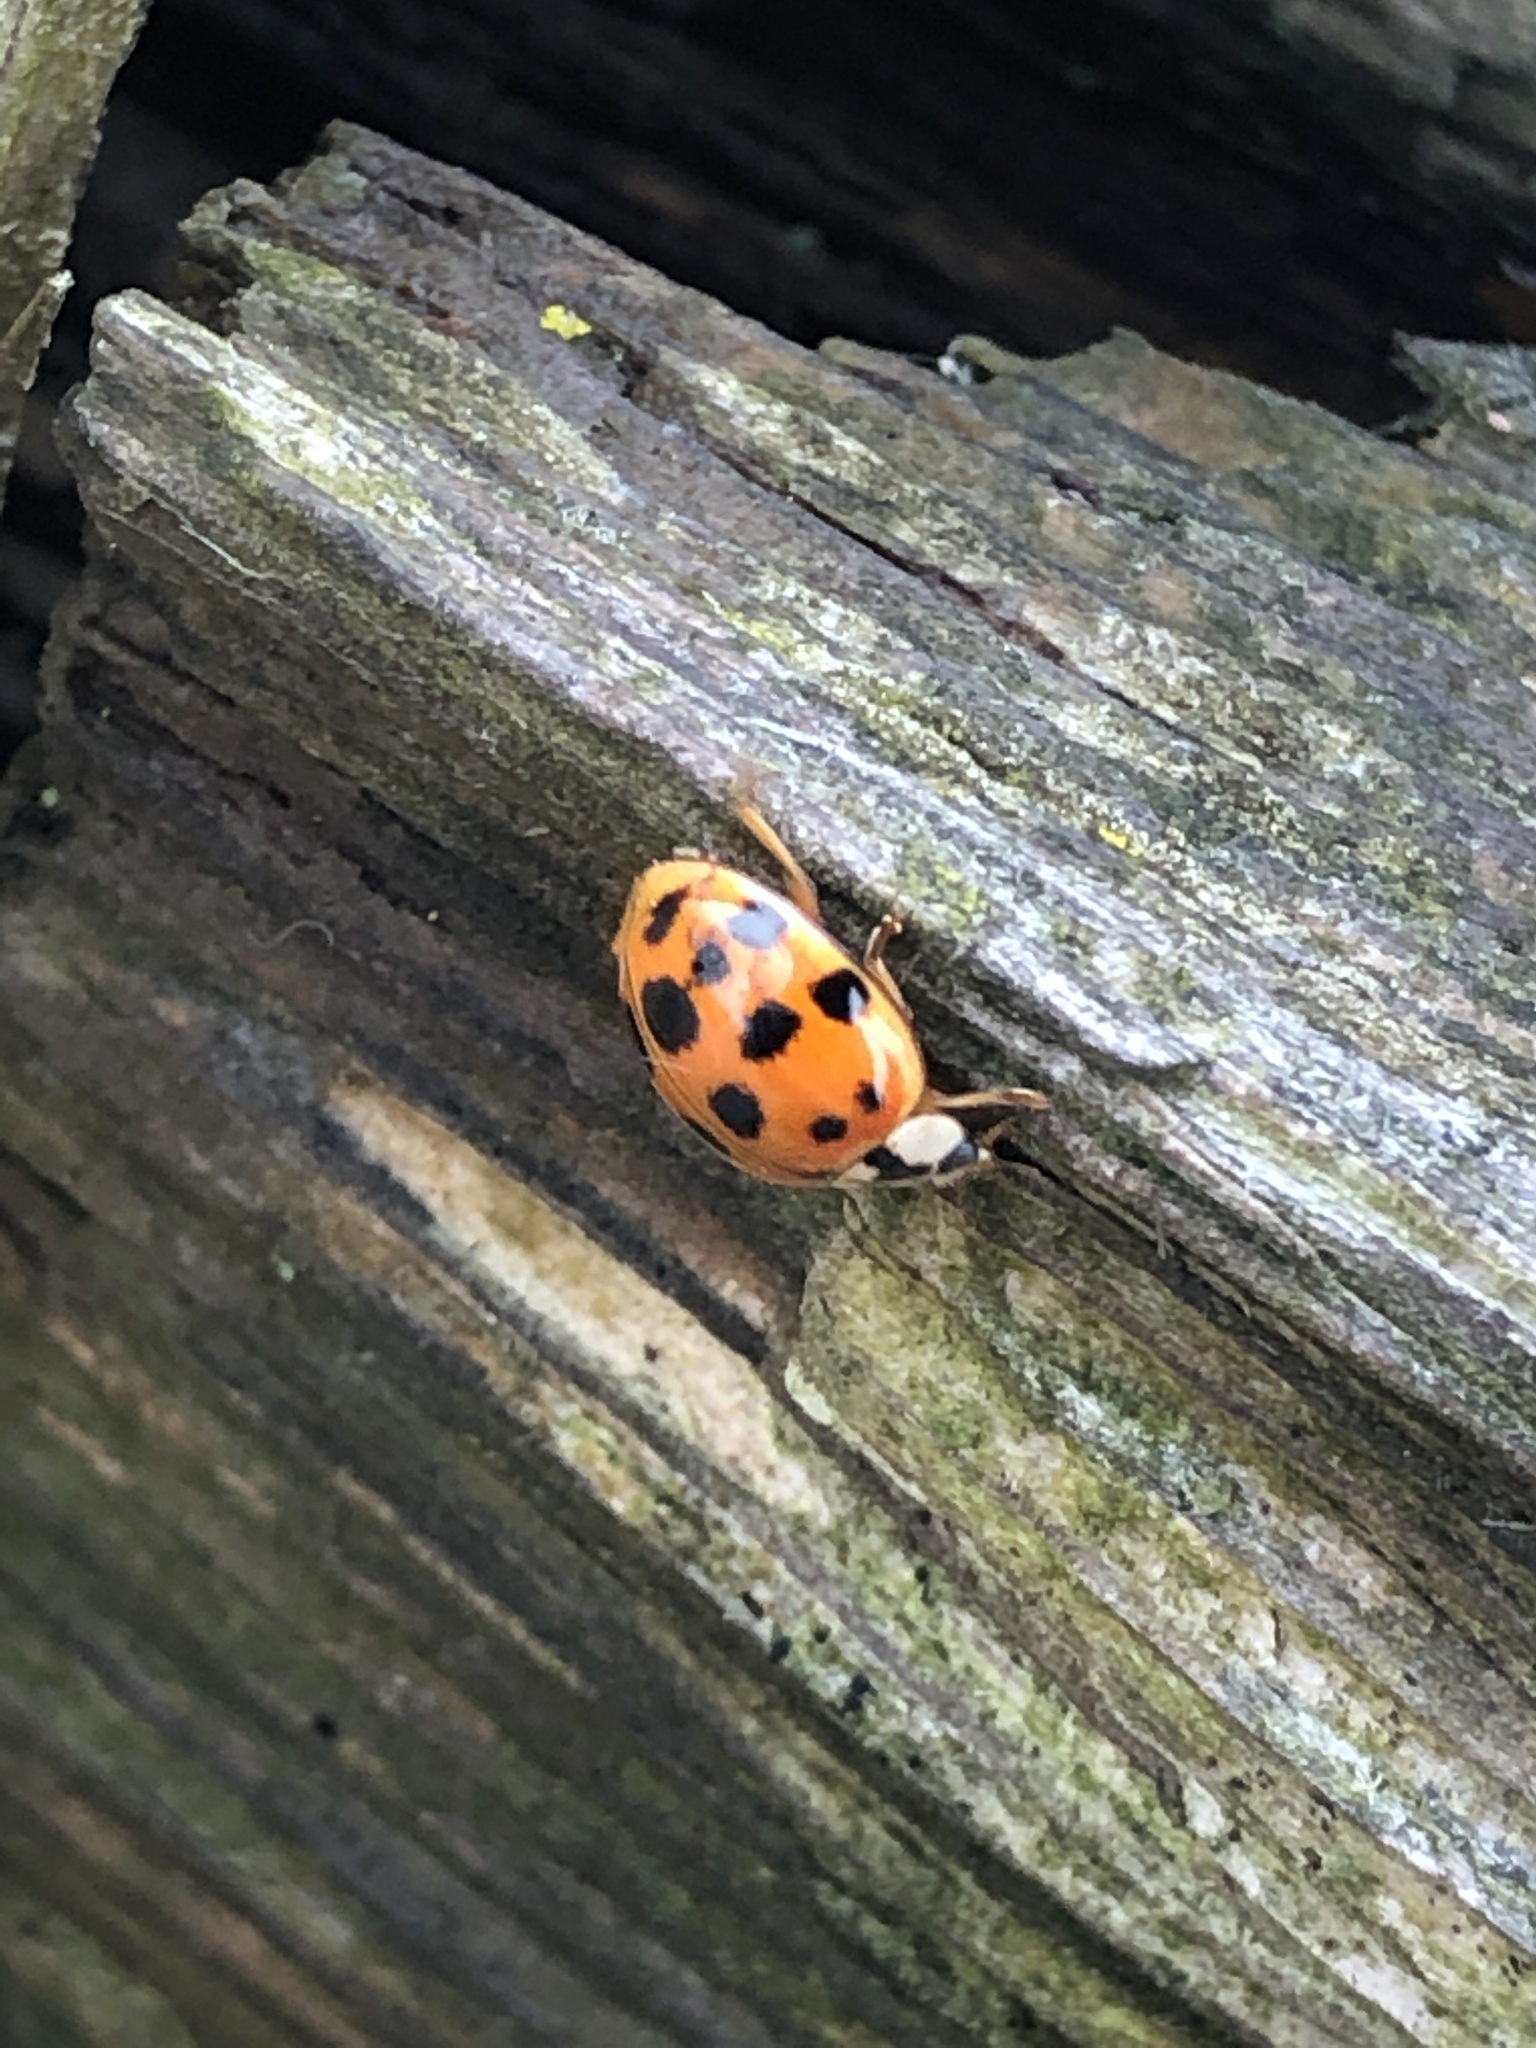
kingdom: Animalia
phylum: Arthropoda
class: Insecta
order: Coleoptera
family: Coccinellidae
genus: Harmonia
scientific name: Harmonia axyridis
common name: Harlequin ladybird
